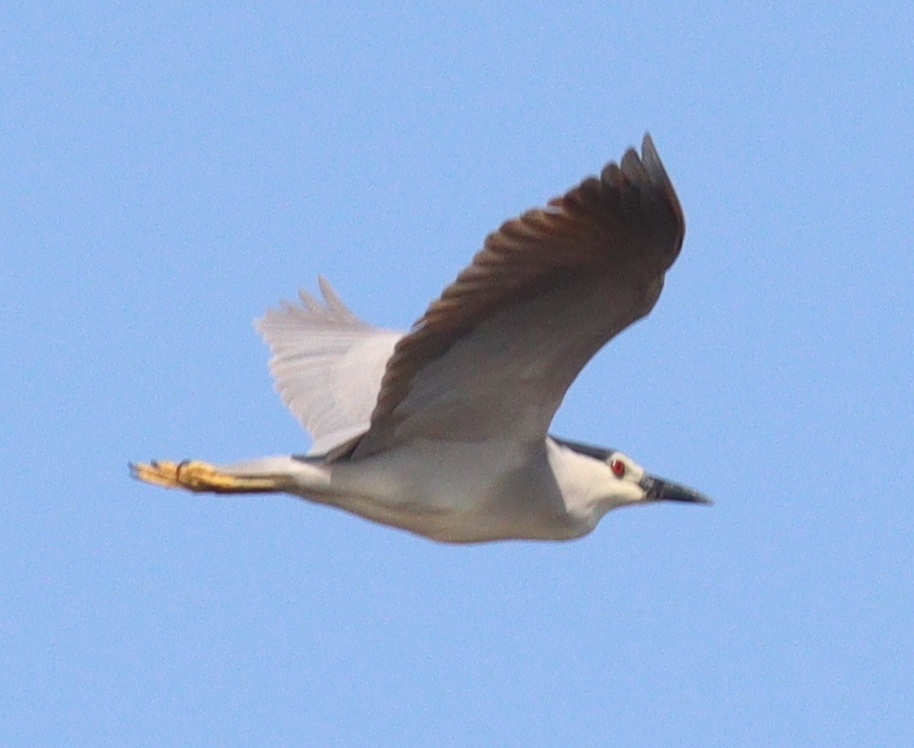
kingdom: Animalia
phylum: Chordata
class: Aves
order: Pelecaniformes
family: Ardeidae
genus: Nycticorax
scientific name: Nycticorax nycticorax
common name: Black-crowned night heron
